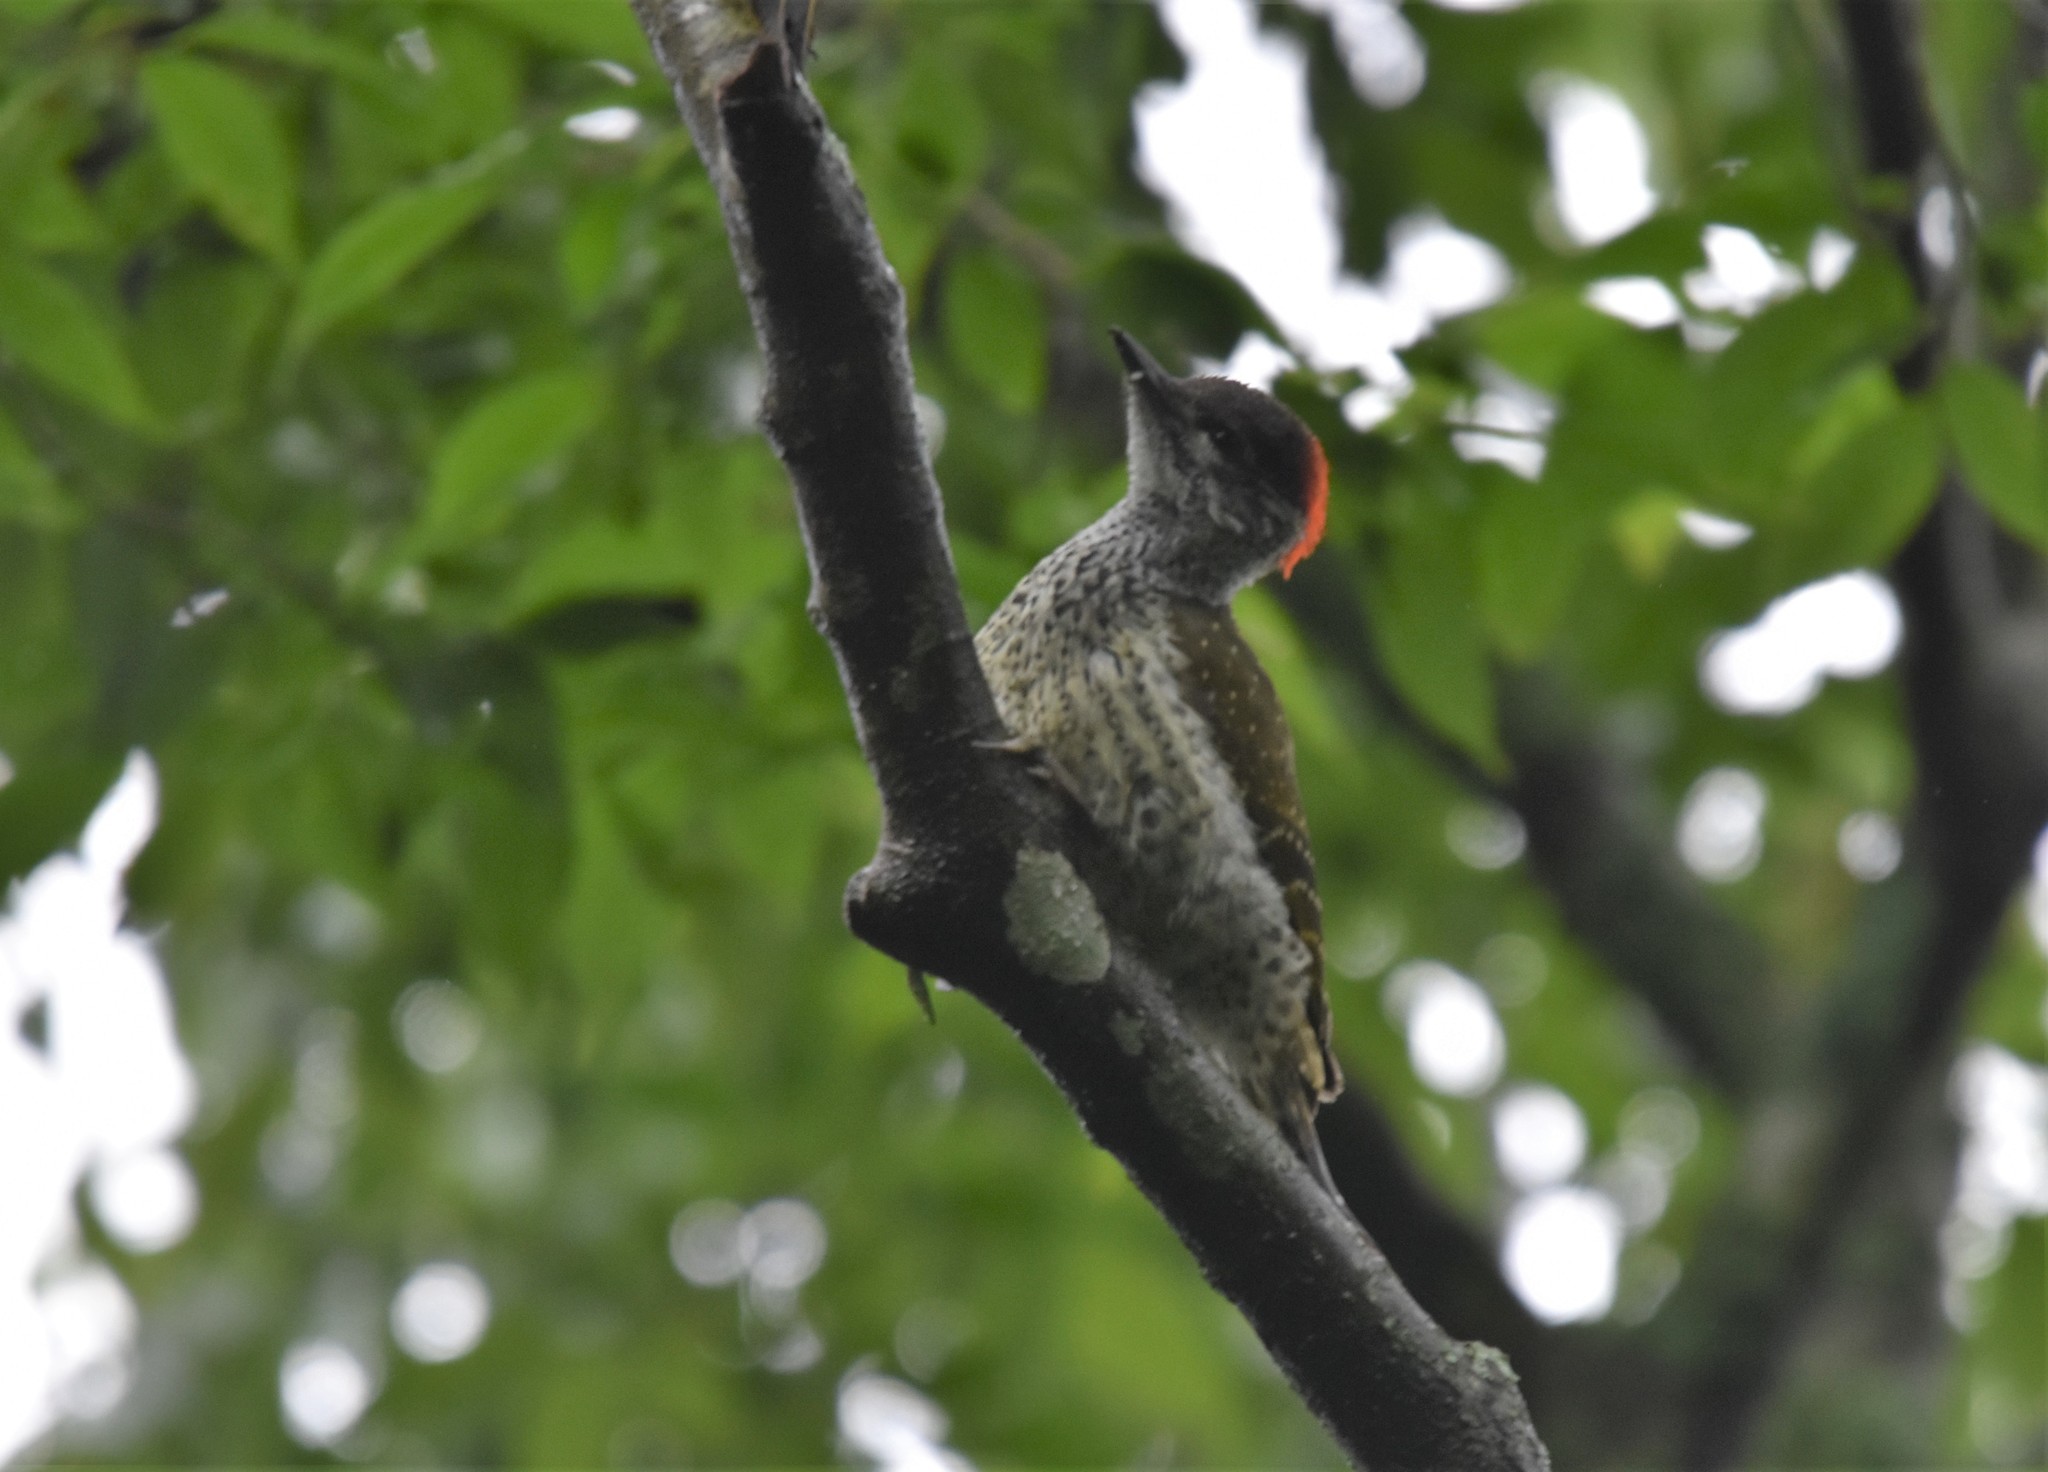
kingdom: Animalia
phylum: Chordata
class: Aves
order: Piciformes
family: Picidae
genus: Campethera
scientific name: Campethera abingoni
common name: Golden-tailed woodpecker
